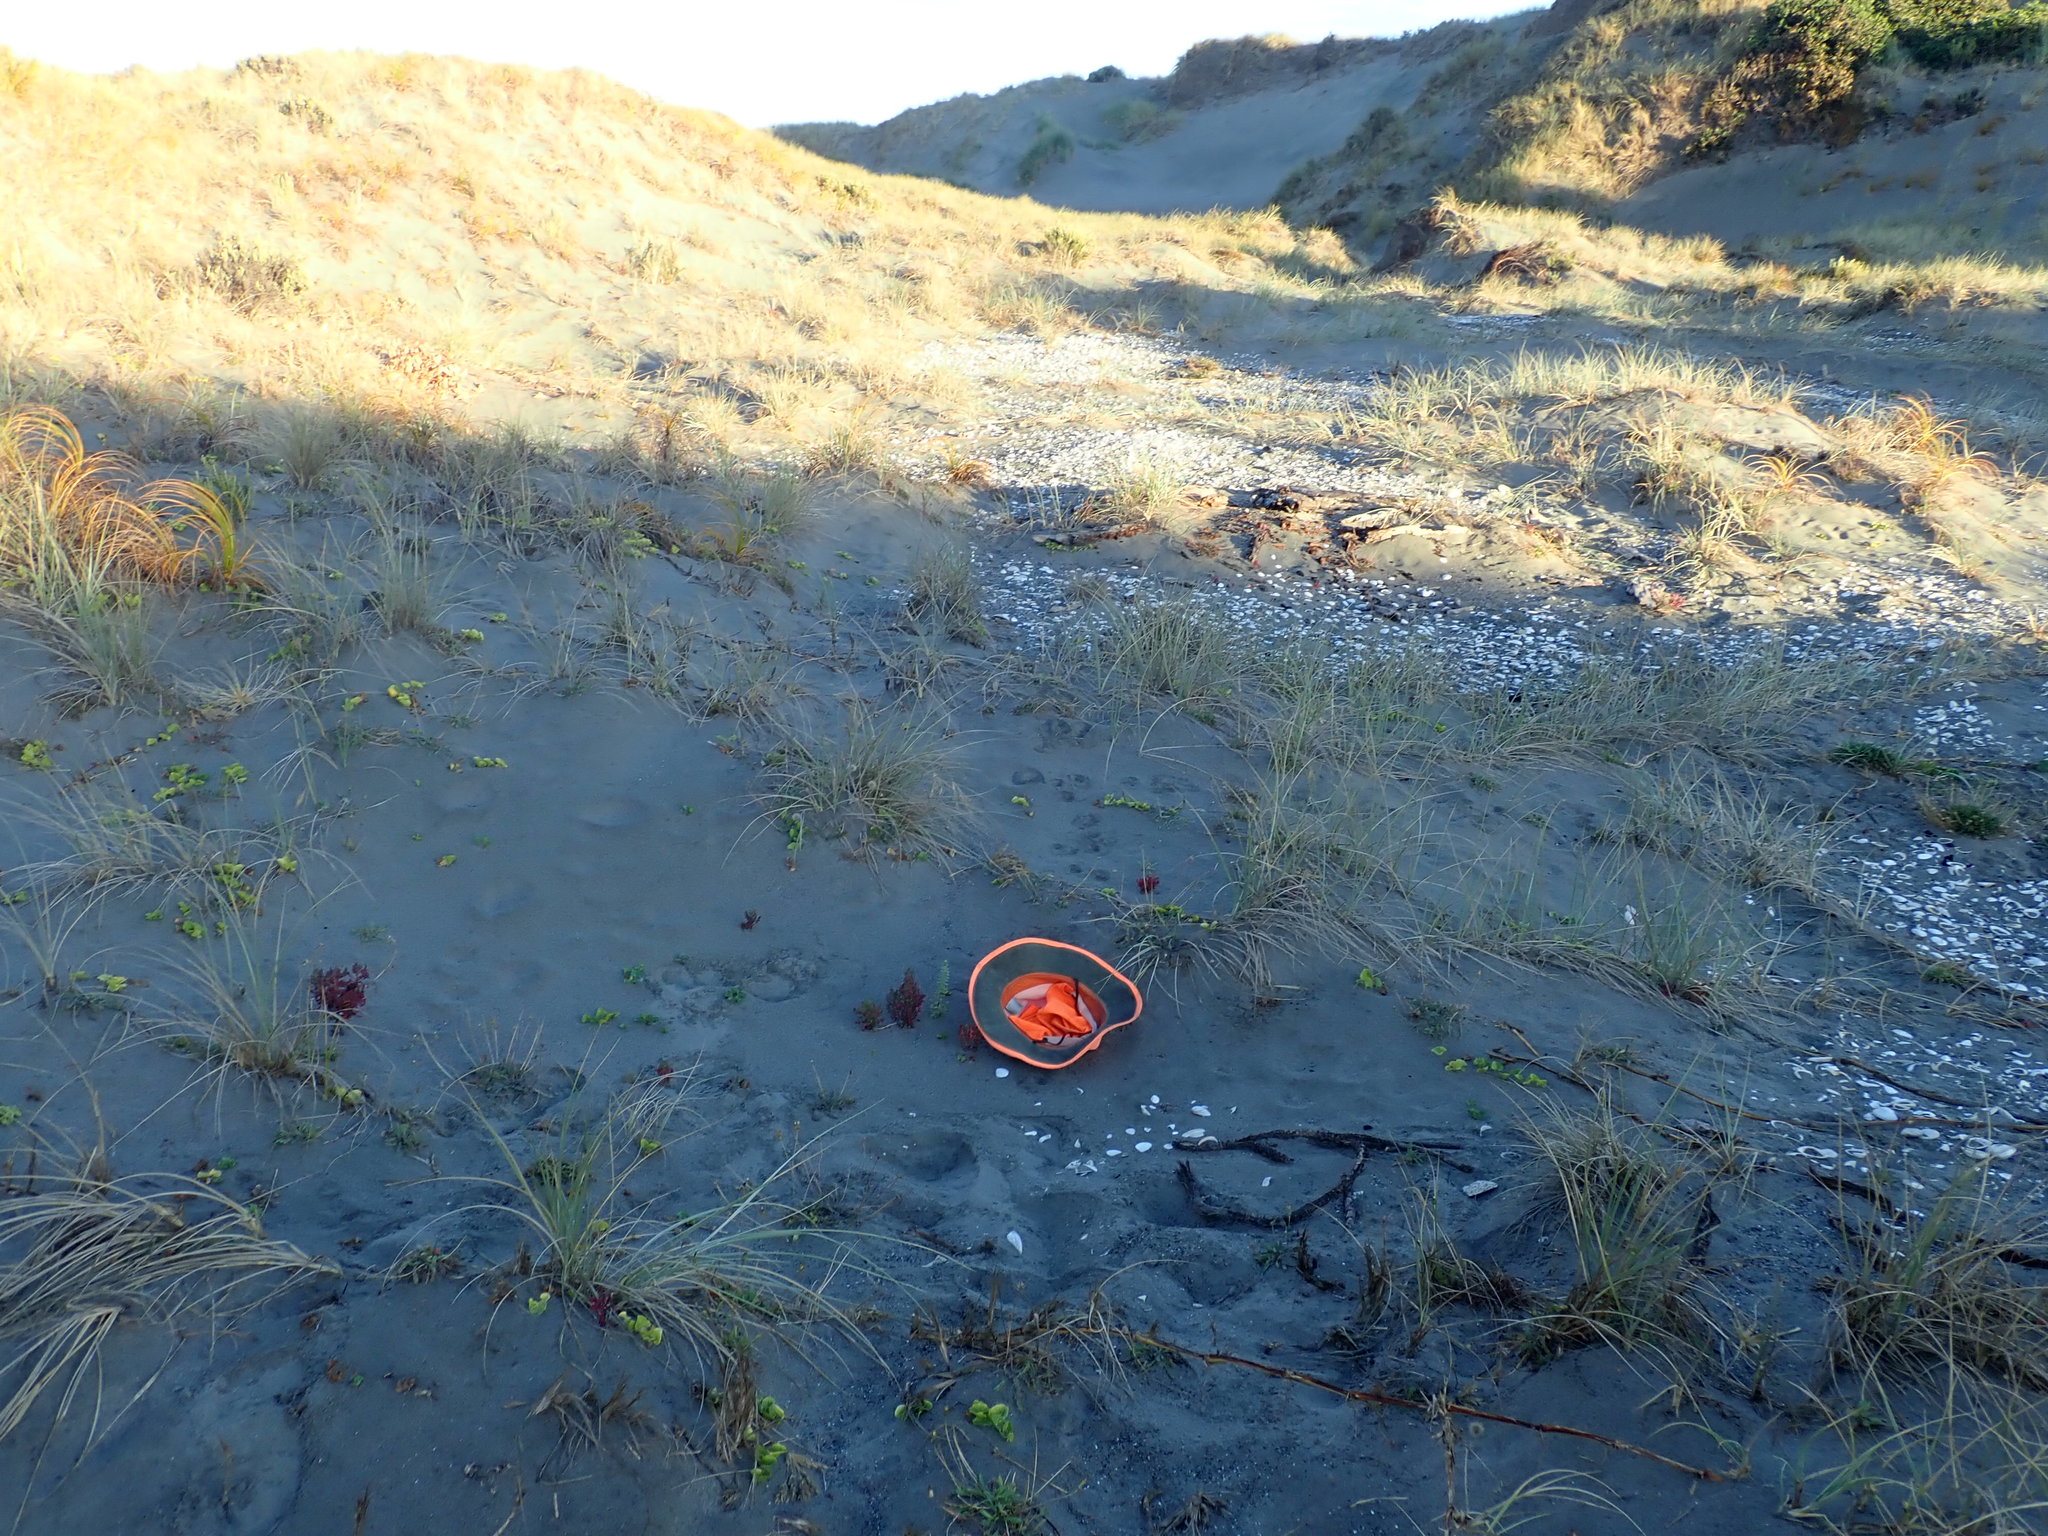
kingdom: Plantae
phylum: Tracheophyta
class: Magnoliopsida
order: Malvales
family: Thymelaeaceae
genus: Pimelea
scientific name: Pimelea villosa
